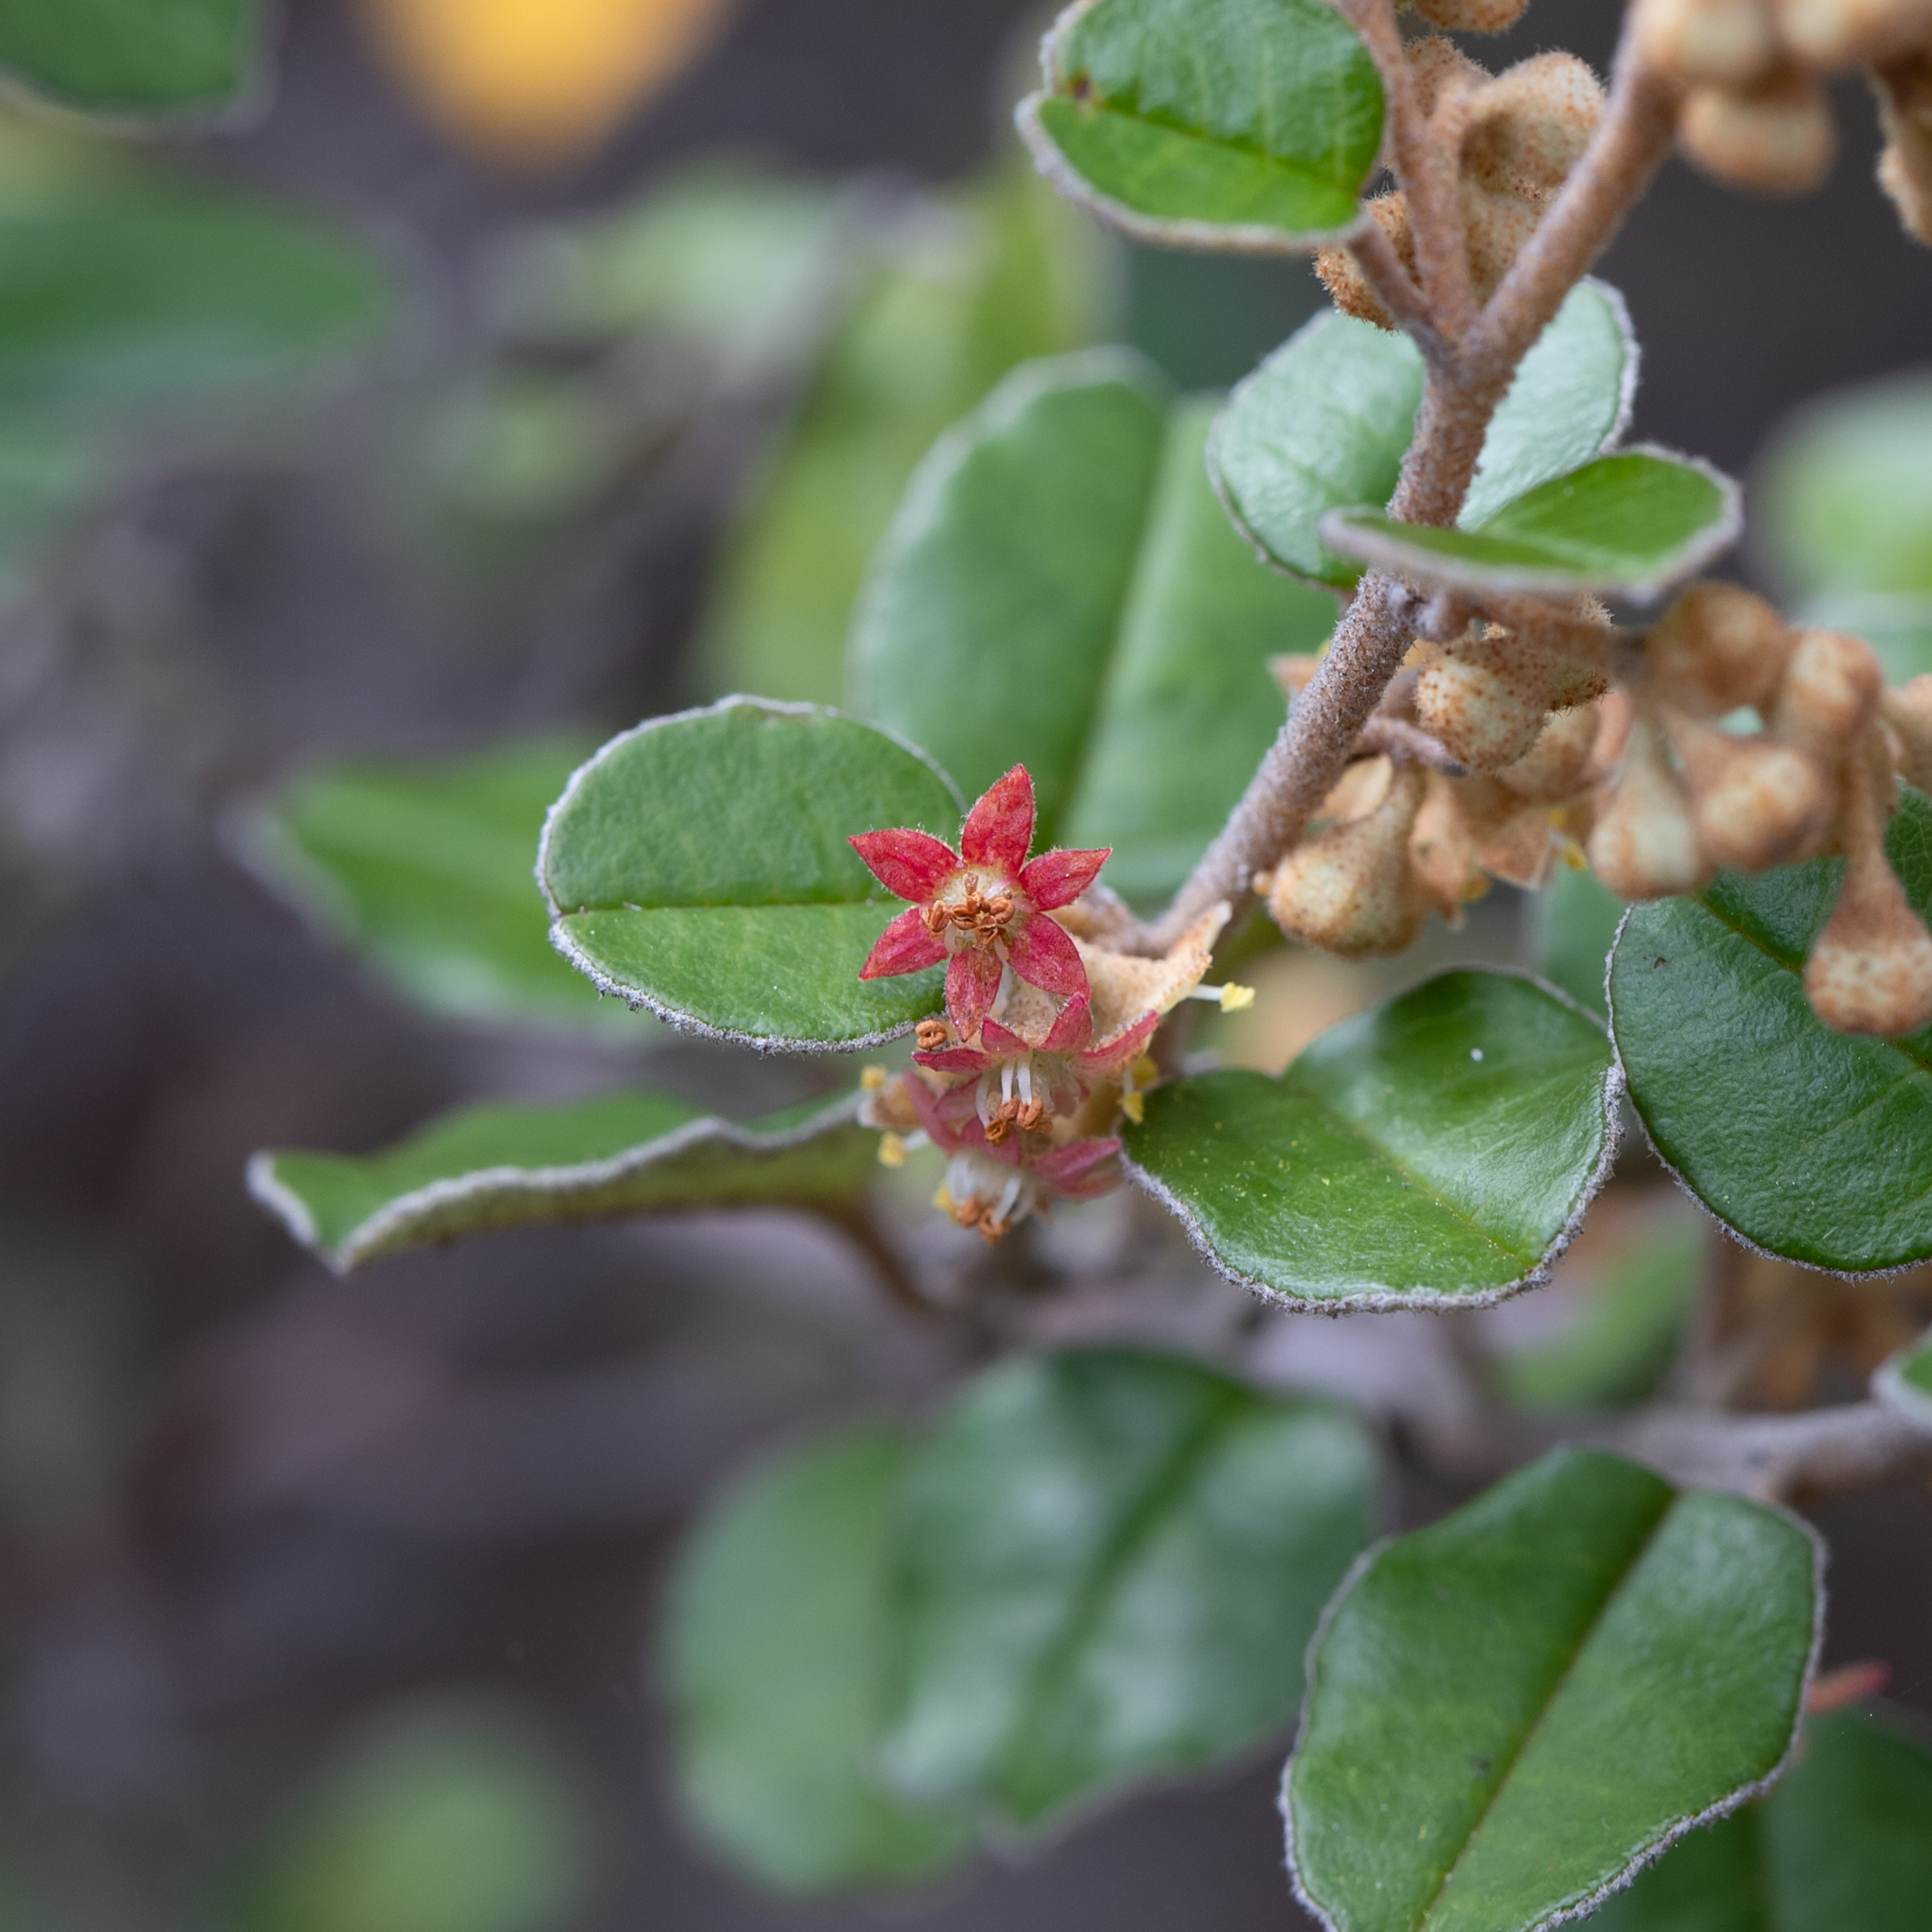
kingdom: Plantae
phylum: Tracheophyta
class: Magnoliopsida
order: Rosales
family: Rhamnaceae
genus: Pomaderris
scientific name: Pomaderris paniculosa
